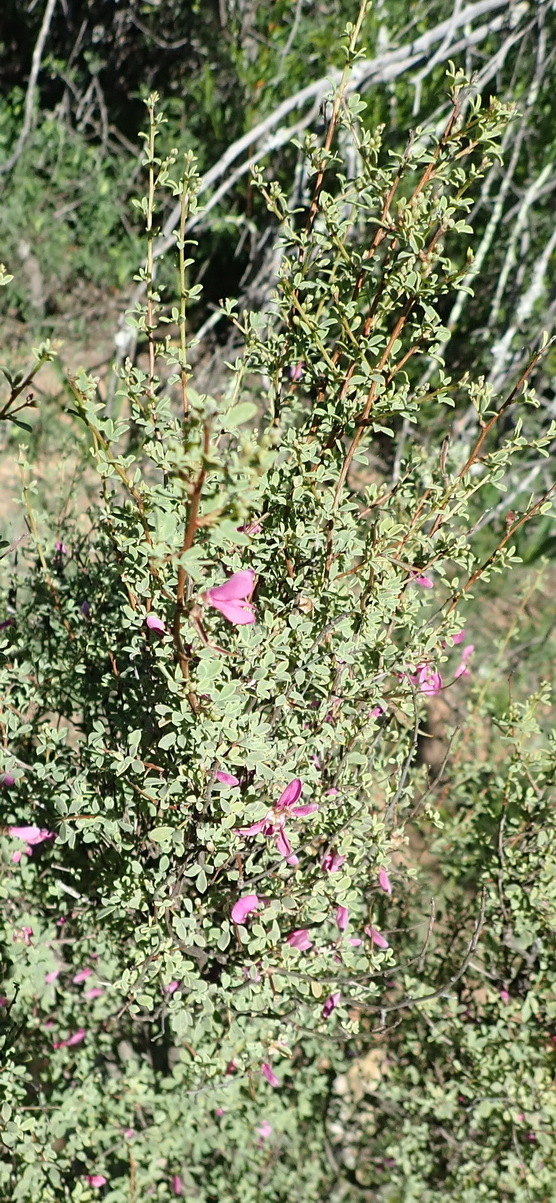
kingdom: Plantae
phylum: Tracheophyta
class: Magnoliopsida
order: Fabales
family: Fabaceae
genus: Indigofera
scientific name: Indigofera denudata
